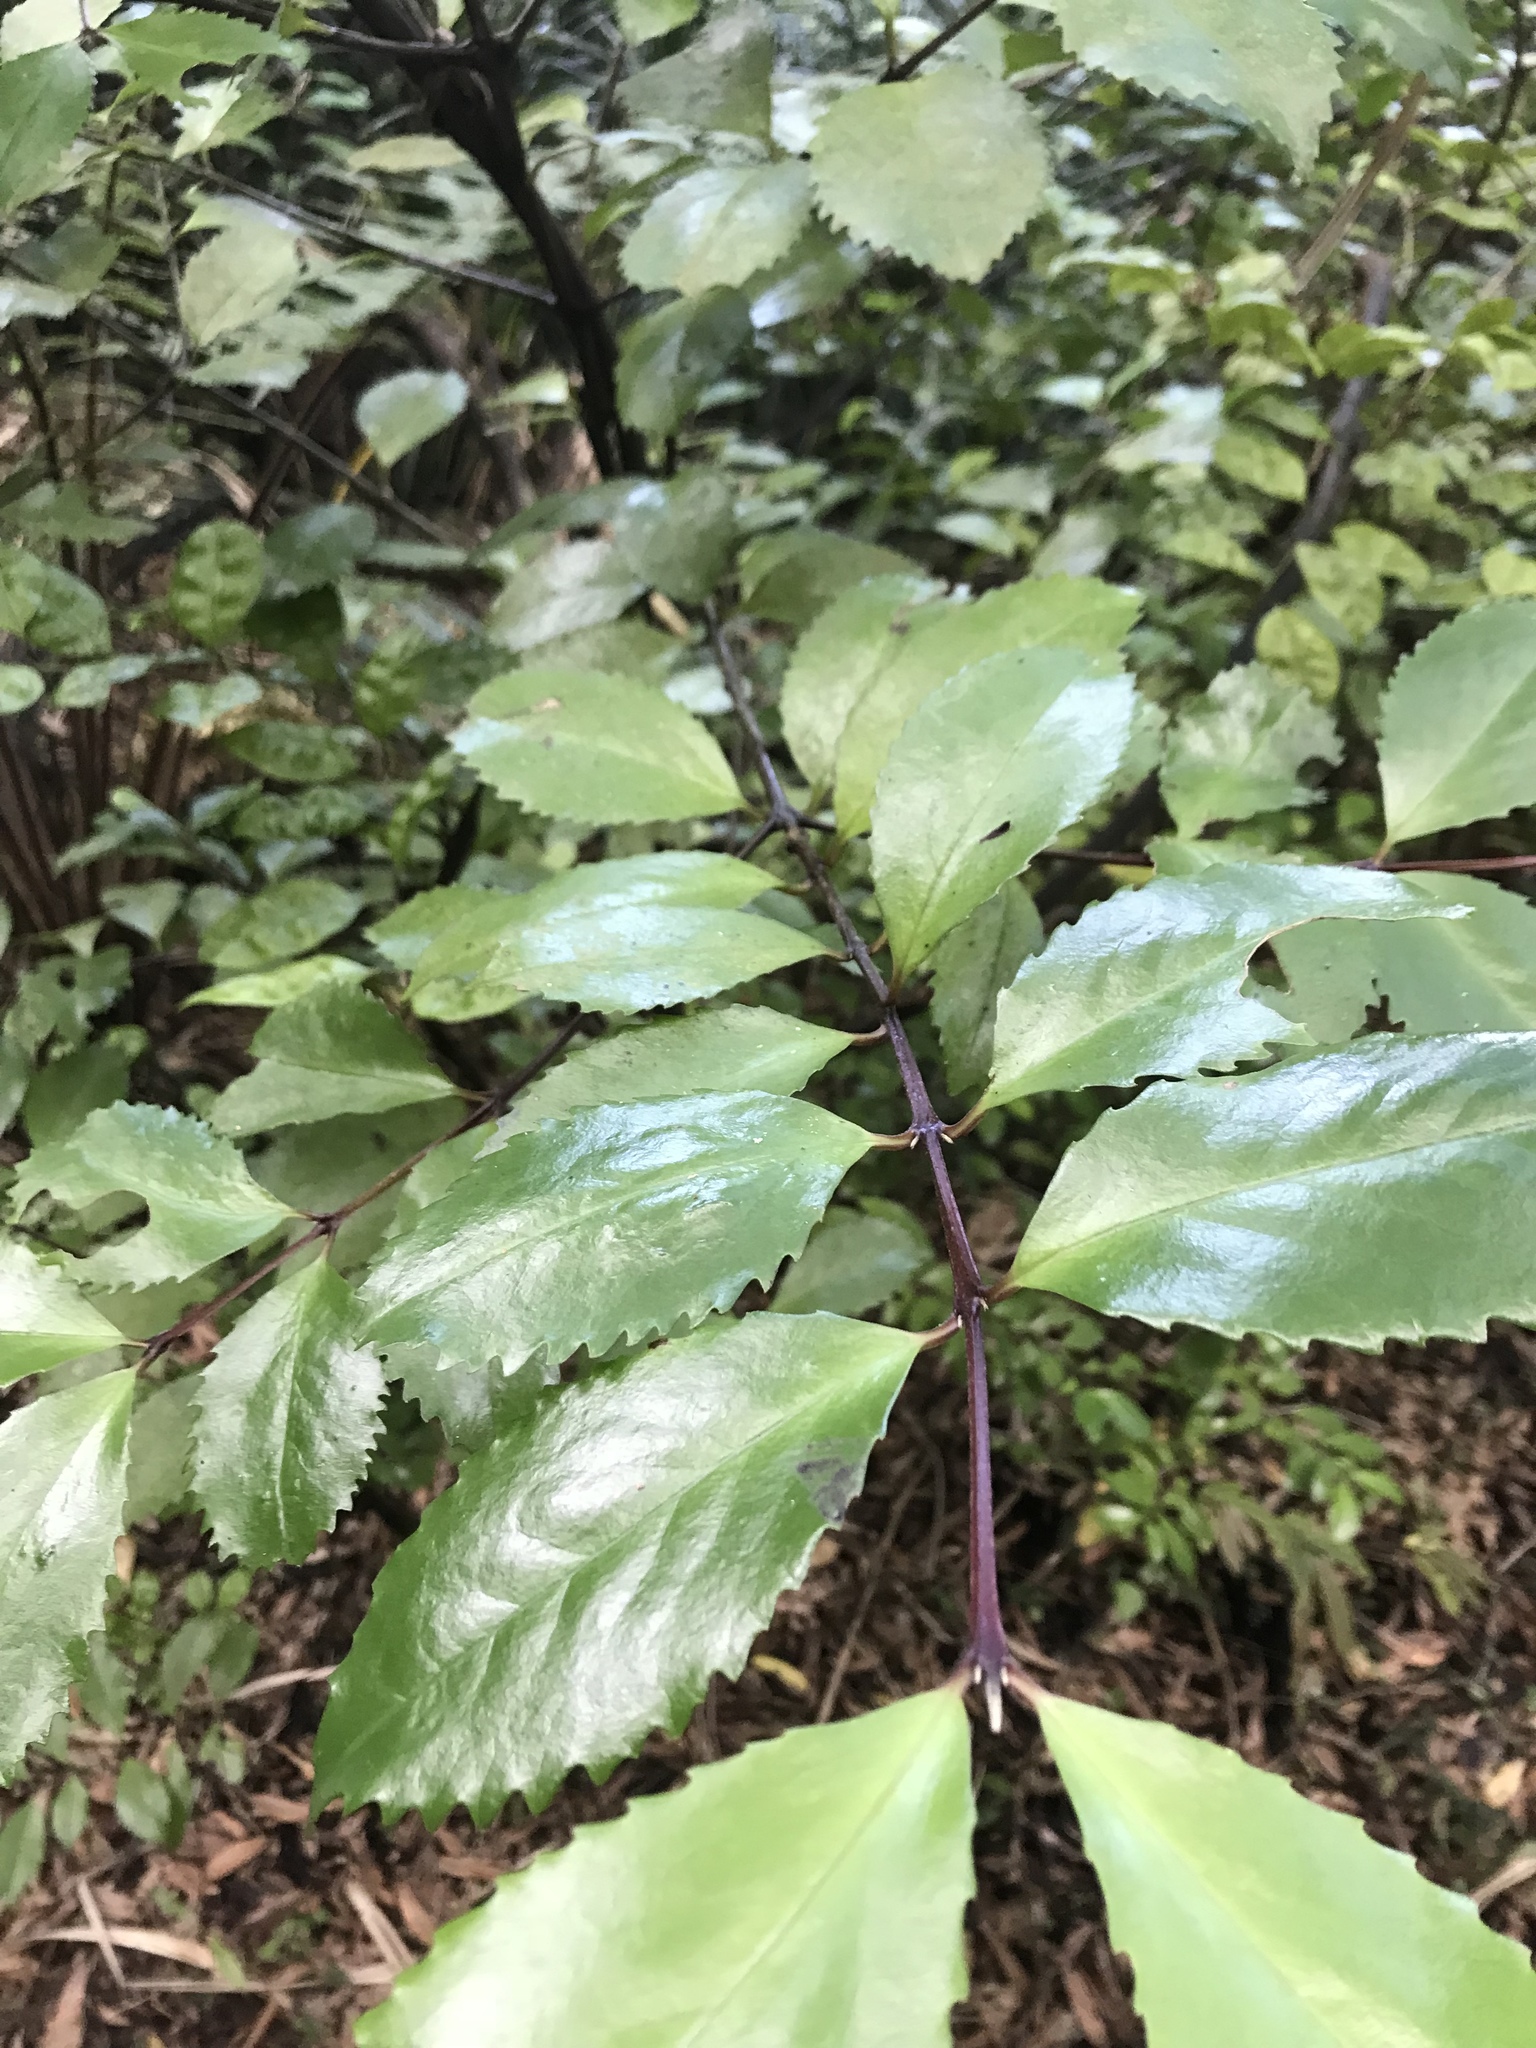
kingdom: Plantae
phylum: Tracheophyta
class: Magnoliopsida
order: Laurales
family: Atherospermataceae
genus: Laurelia
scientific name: Laurelia novae-zelandiae
